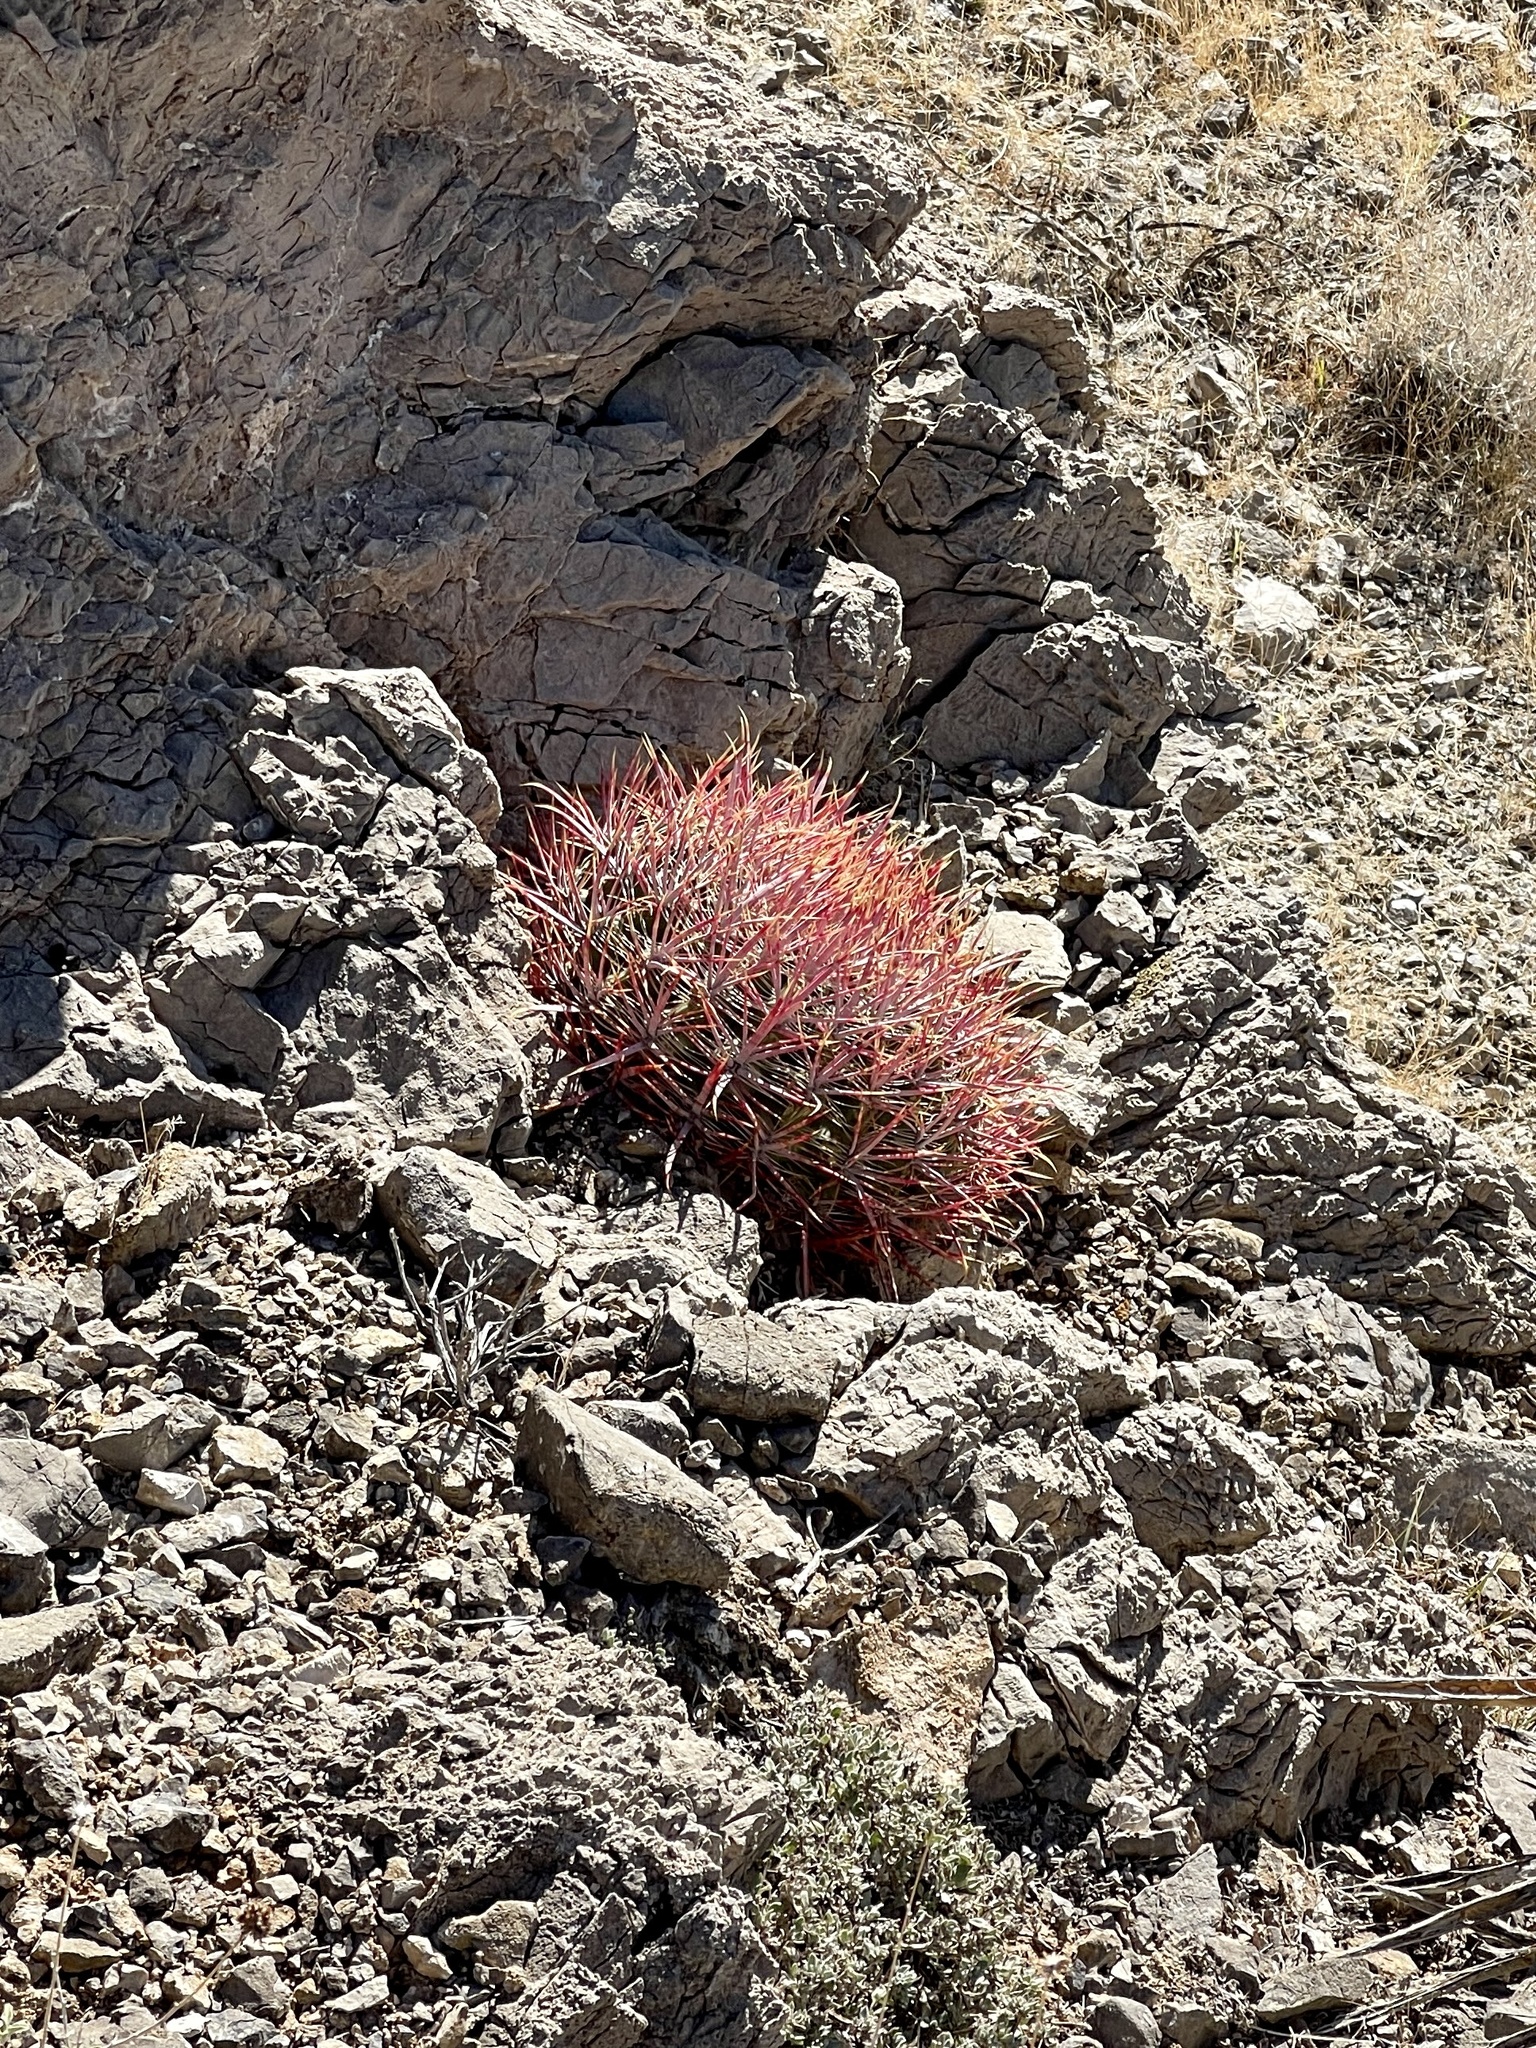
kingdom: Plantae
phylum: Tracheophyta
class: Magnoliopsida
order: Caryophyllales
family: Cactaceae
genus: Ferocactus
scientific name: Ferocactus cylindraceus
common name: California barrel cactus
